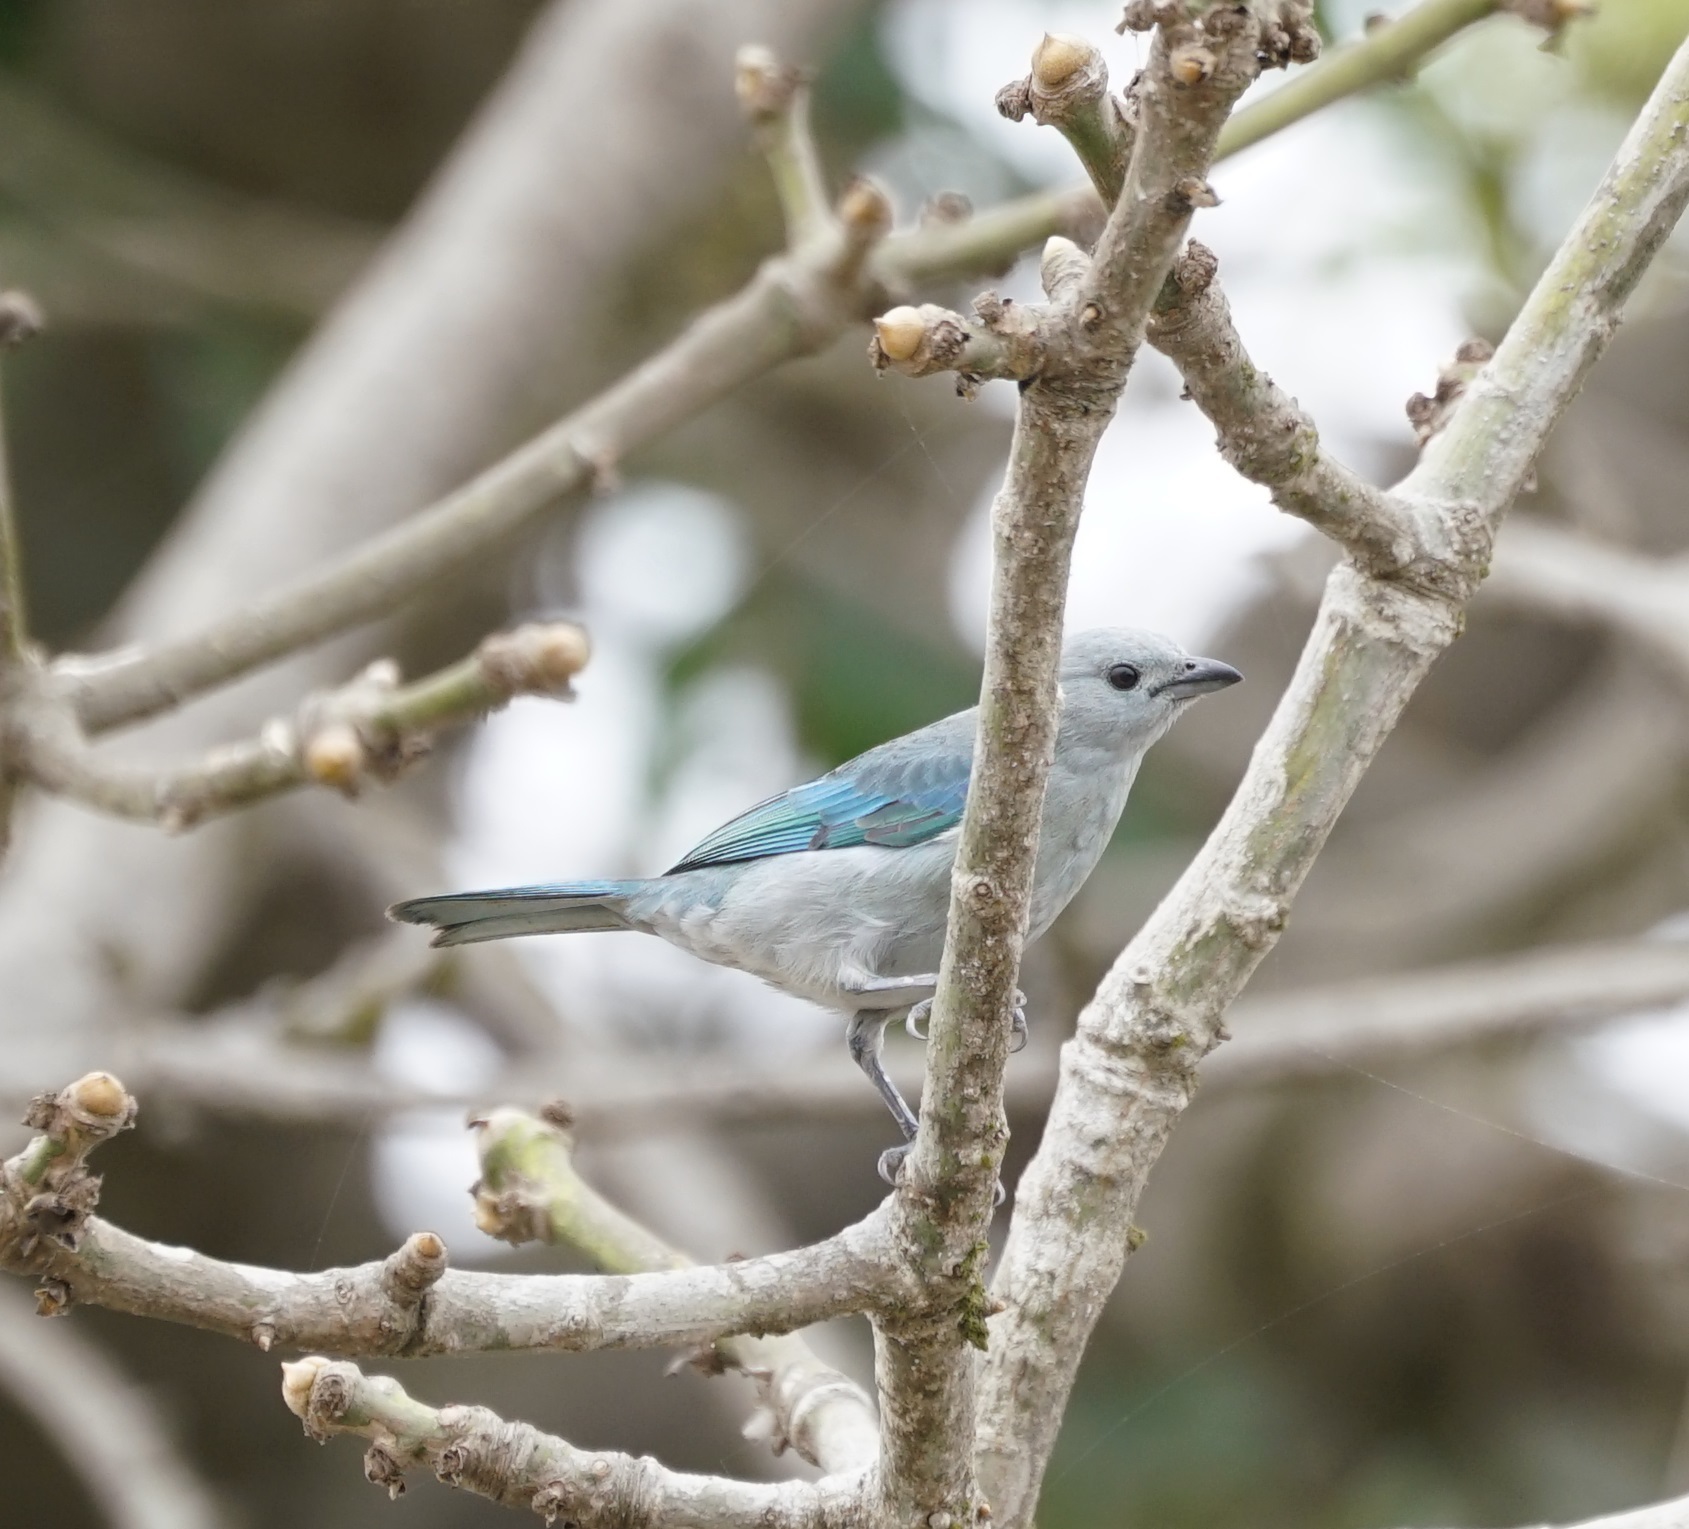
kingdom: Animalia
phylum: Chordata
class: Aves
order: Passeriformes
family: Thraupidae
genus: Thraupis
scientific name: Thraupis episcopus
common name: Blue-grey tanager
